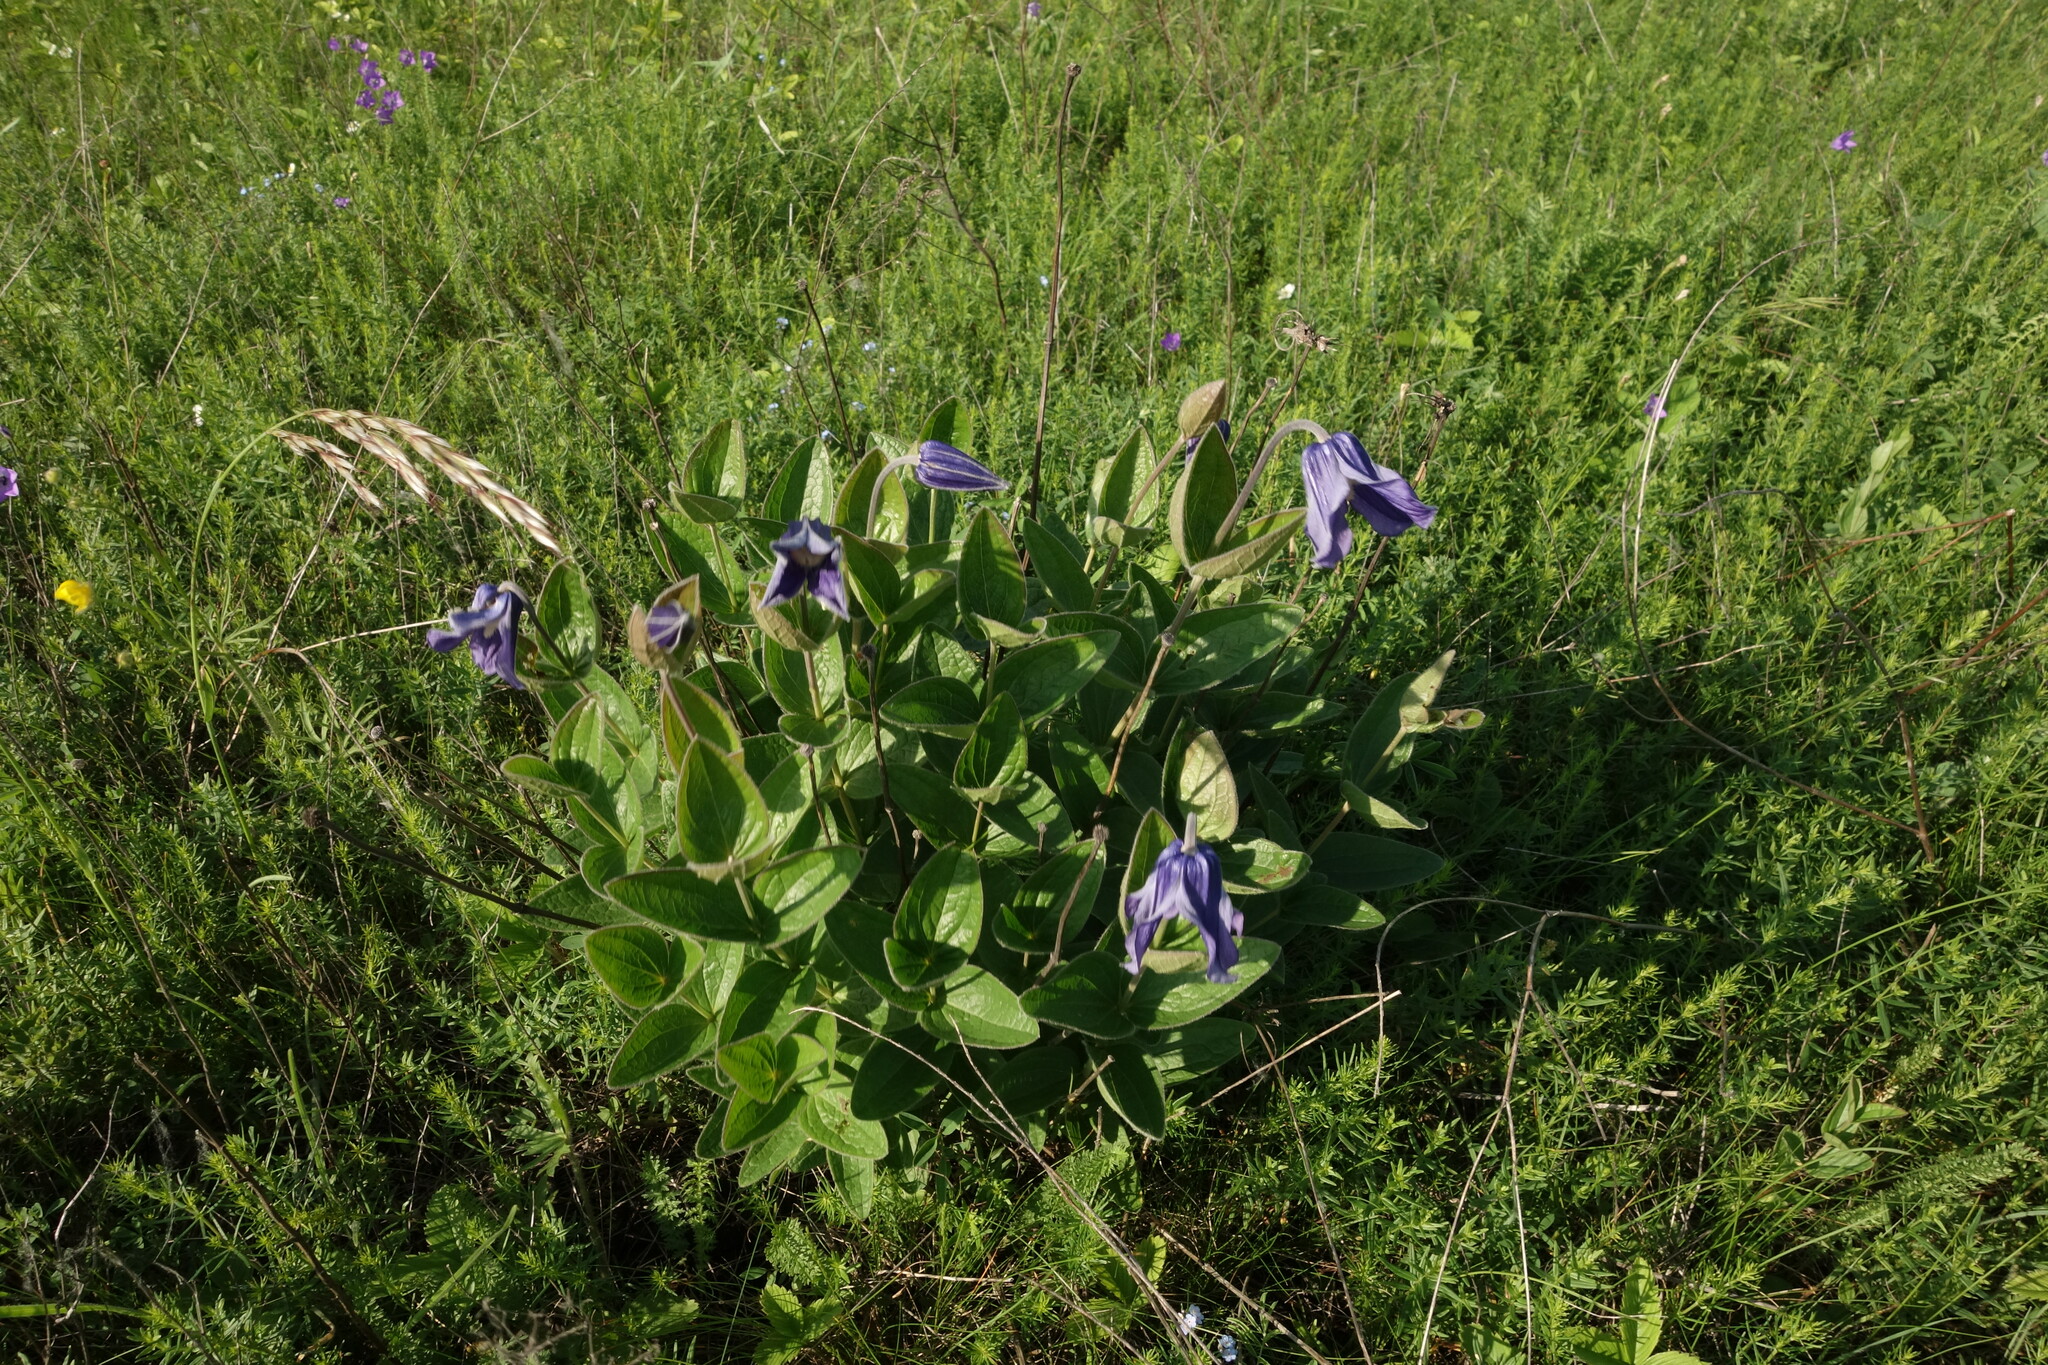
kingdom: Plantae
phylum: Tracheophyta
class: Magnoliopsida
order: Ranunculales
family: Ranunculaceae
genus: Clematis
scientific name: Clematis integrifolia
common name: Solitary clematis
